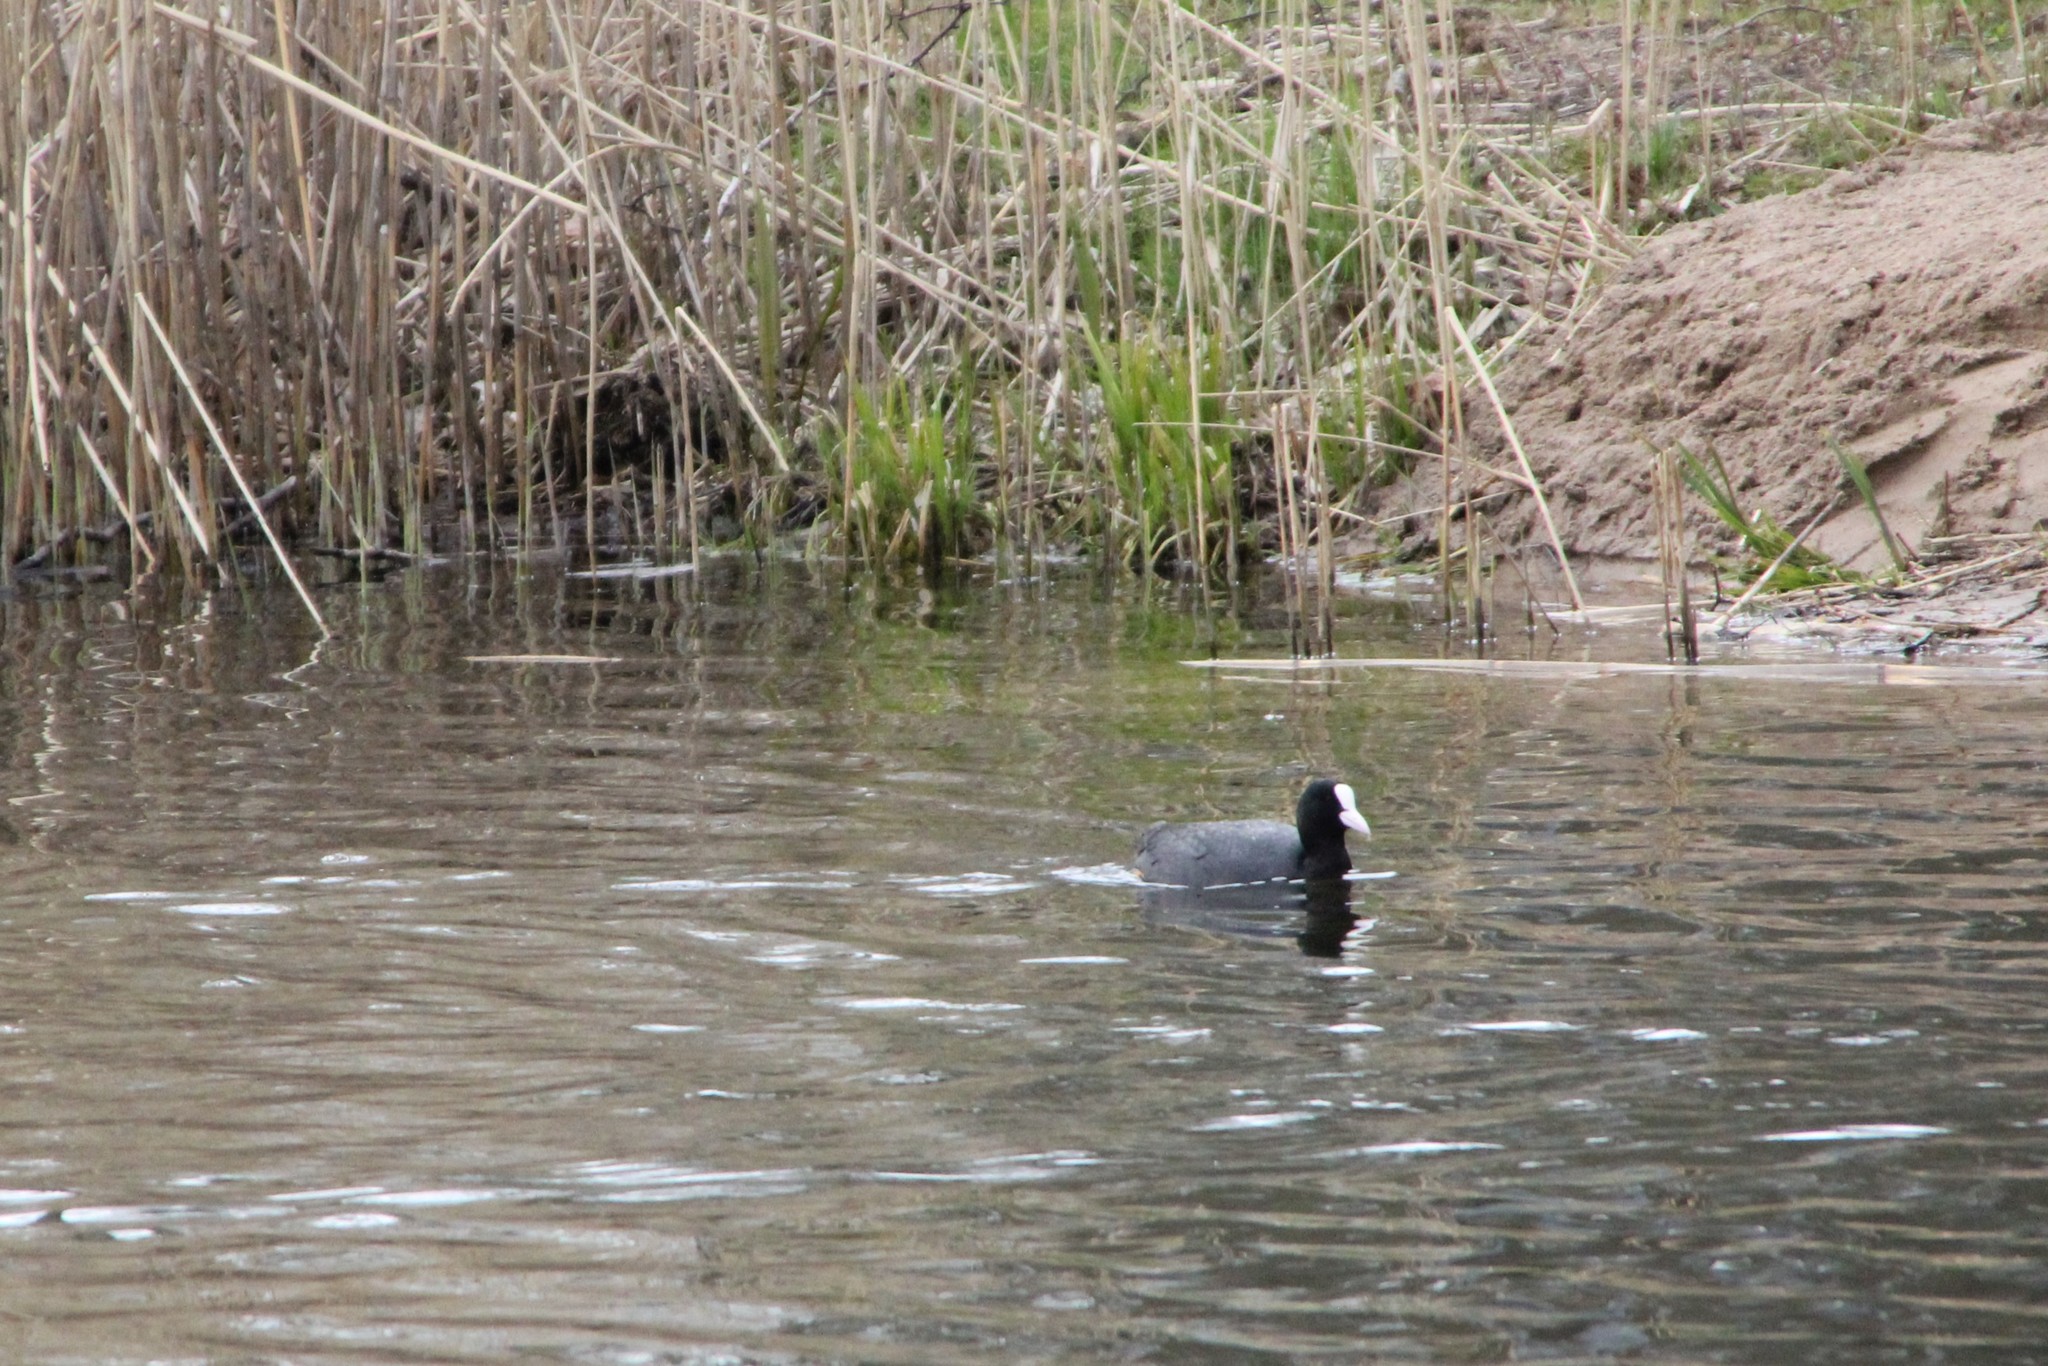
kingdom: Animalia
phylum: Chordata
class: Aves
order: Gruiformes
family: Rallidae
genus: Fulica
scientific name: Fulica atra
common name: Eurasian coot
